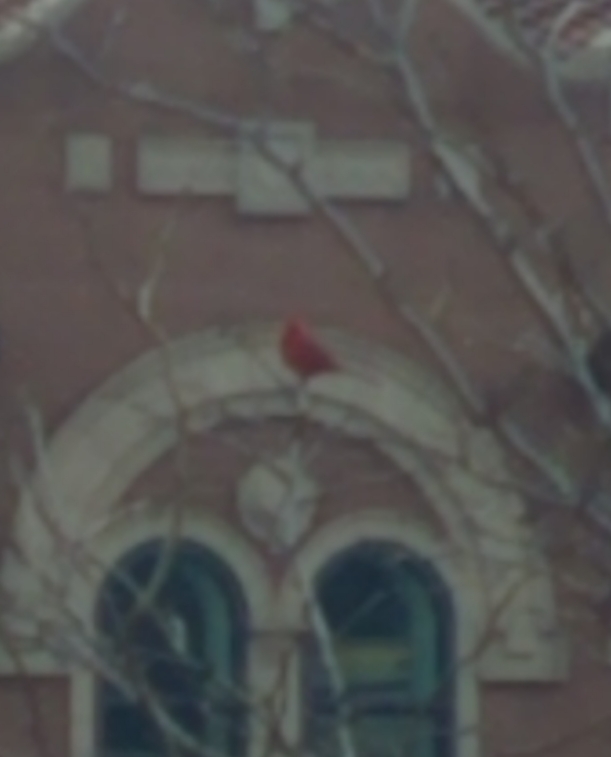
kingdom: Animalia
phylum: Chordata
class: Aves
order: Passeriformes
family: Cardinalidae
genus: Cardinalis
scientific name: Cardinalis cardinalis
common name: Northern cardinal
